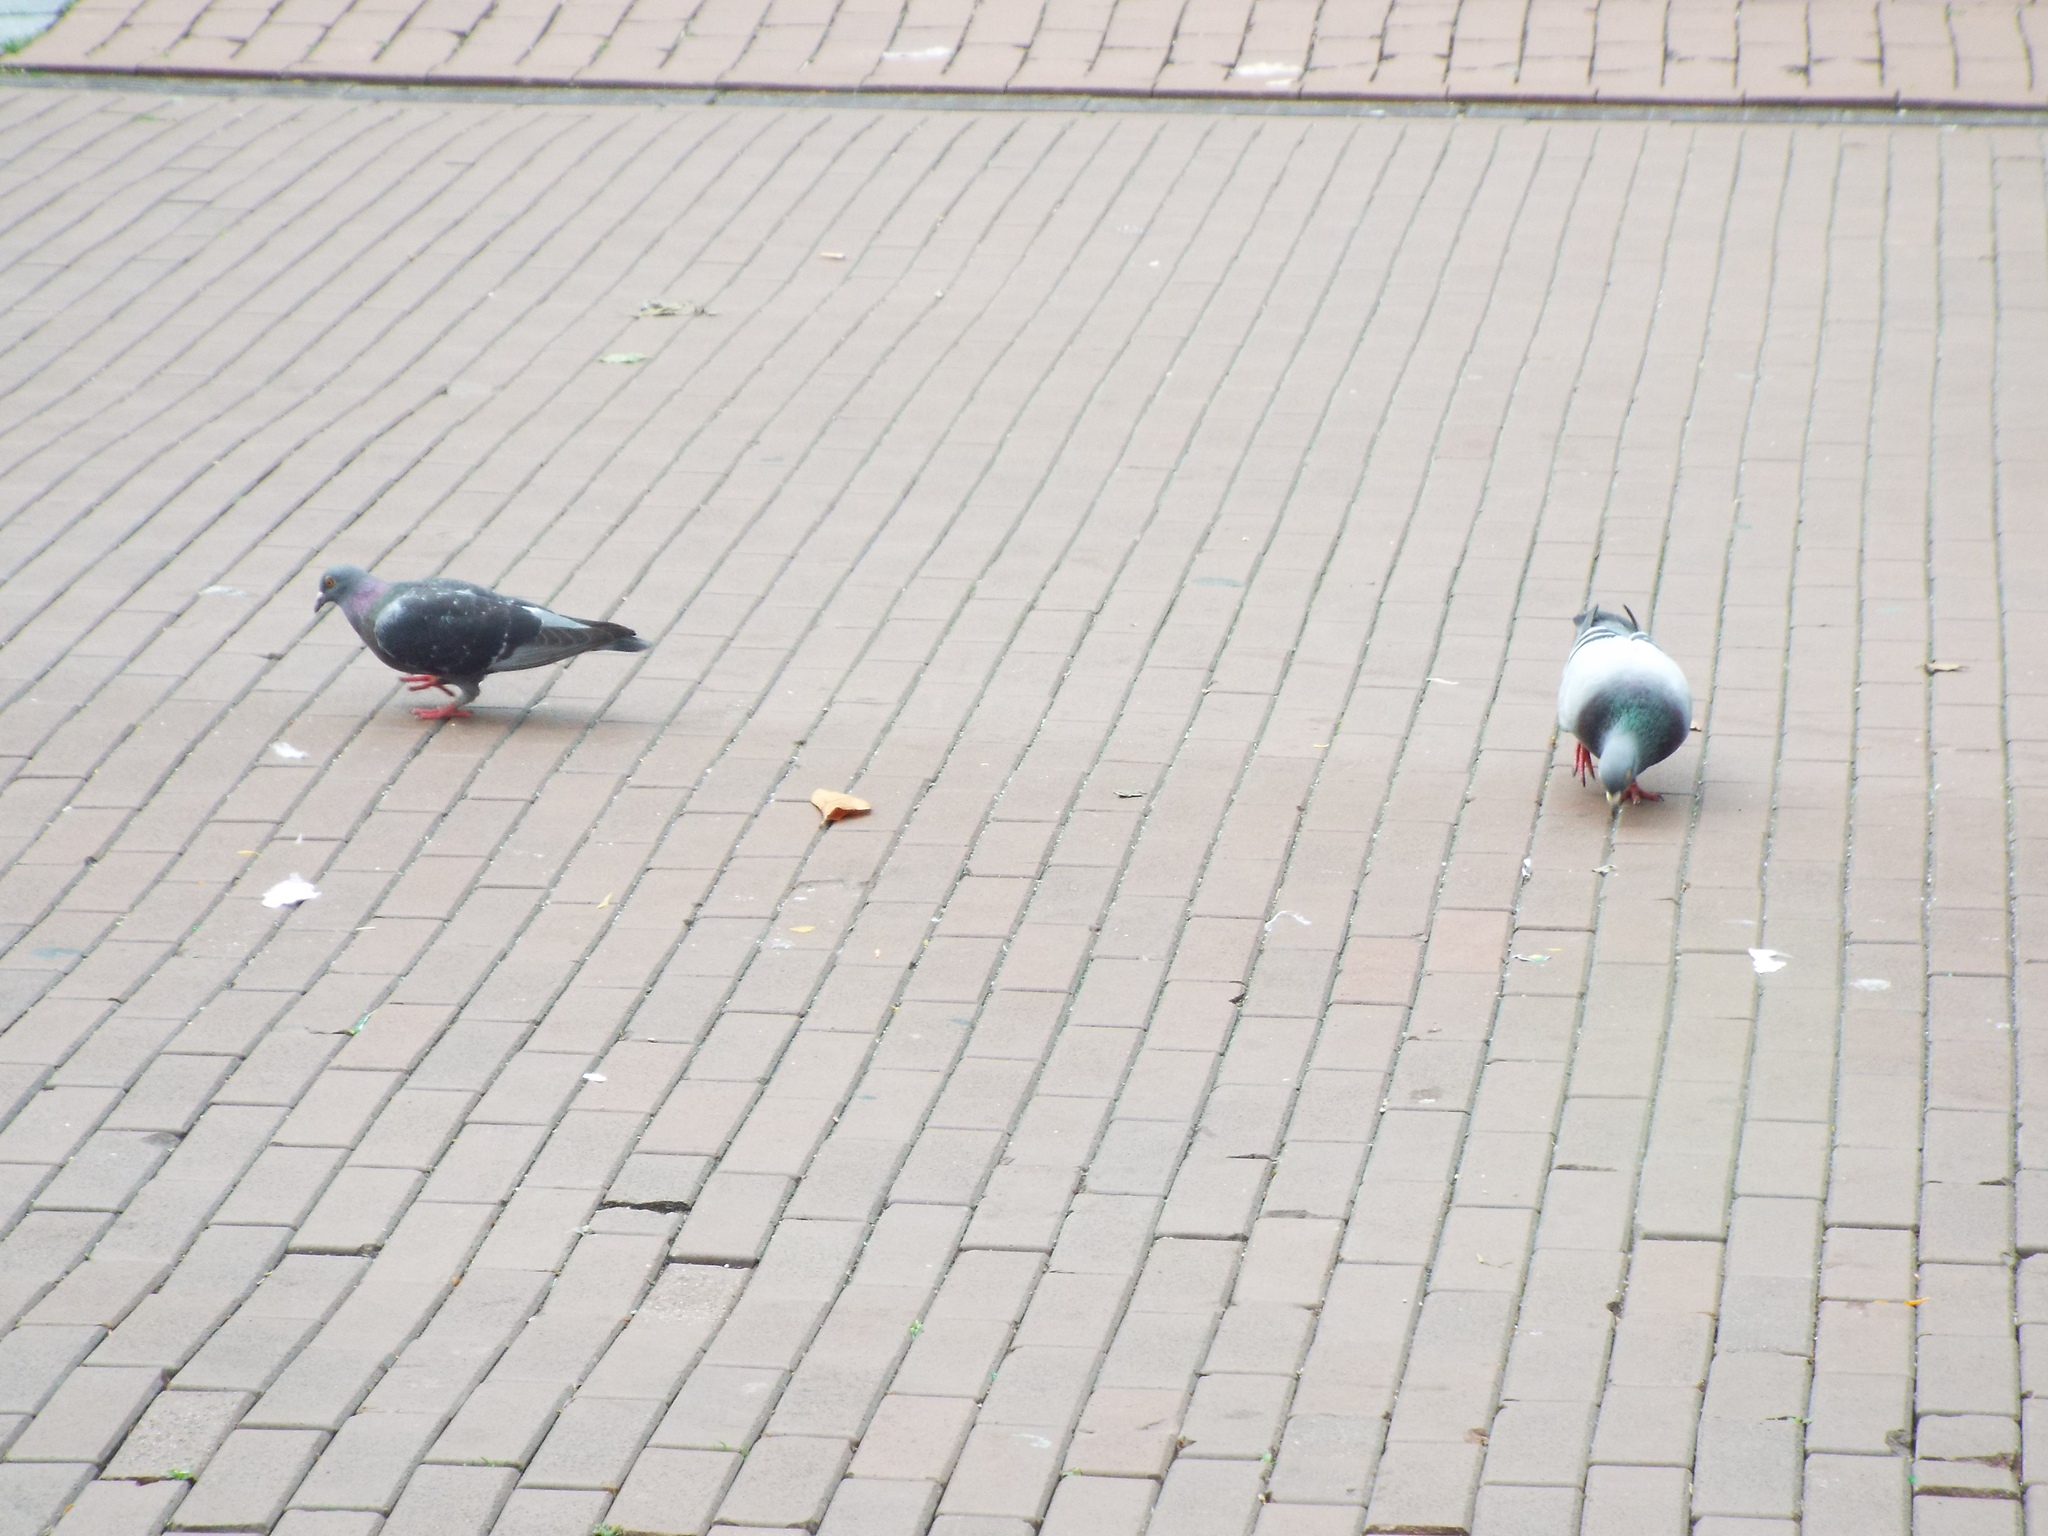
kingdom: Animalia
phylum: Chordata
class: Aves
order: Columbiformes
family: Columbidae
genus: Columba
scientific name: Columba livia
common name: Rock pigeon
